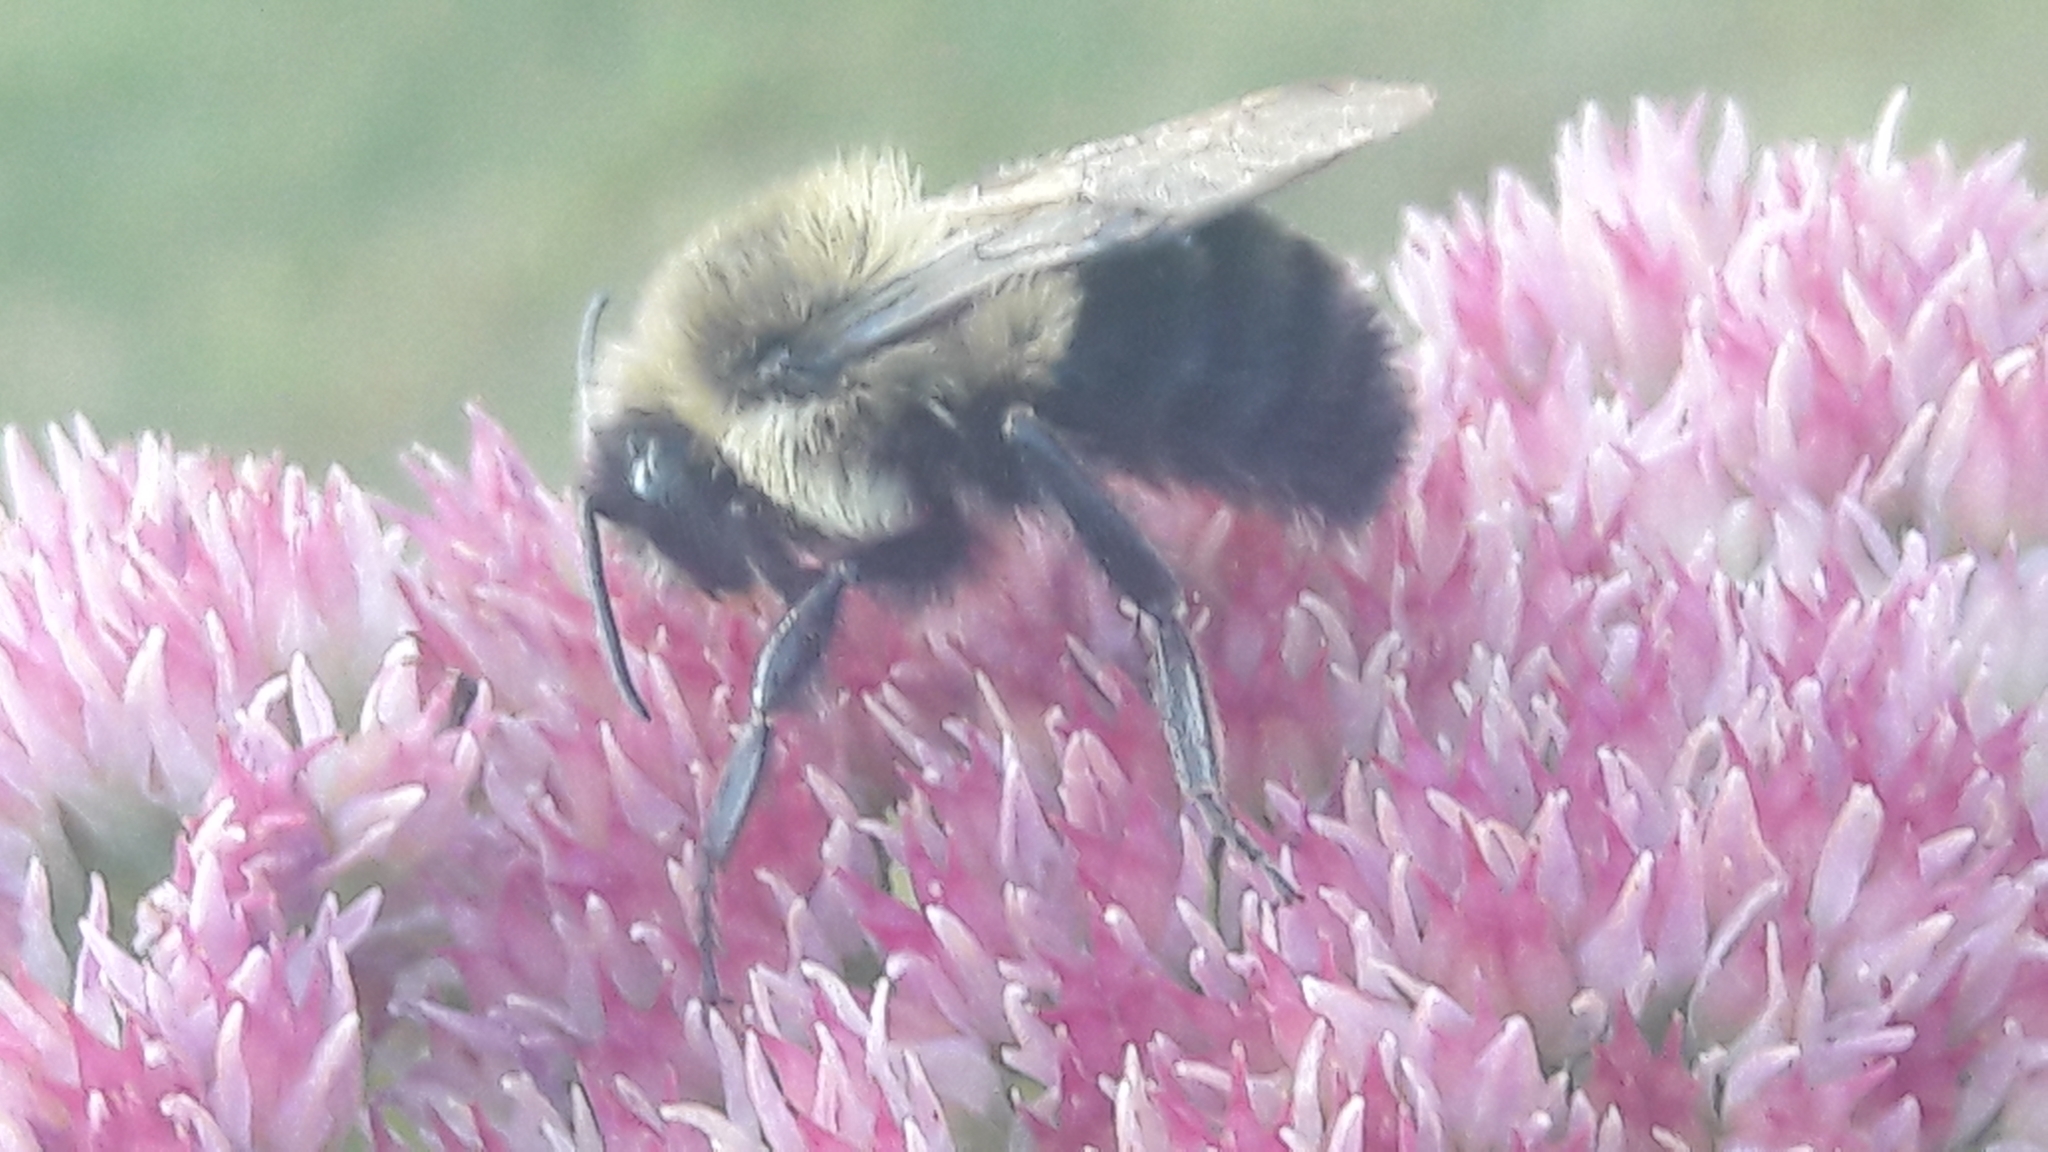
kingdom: Animalia
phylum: Arthropoda
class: Insecta
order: Hymenoptera
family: Apidae
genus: Bombus
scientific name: Bombus impatiens
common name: Common eastern bumble bee
